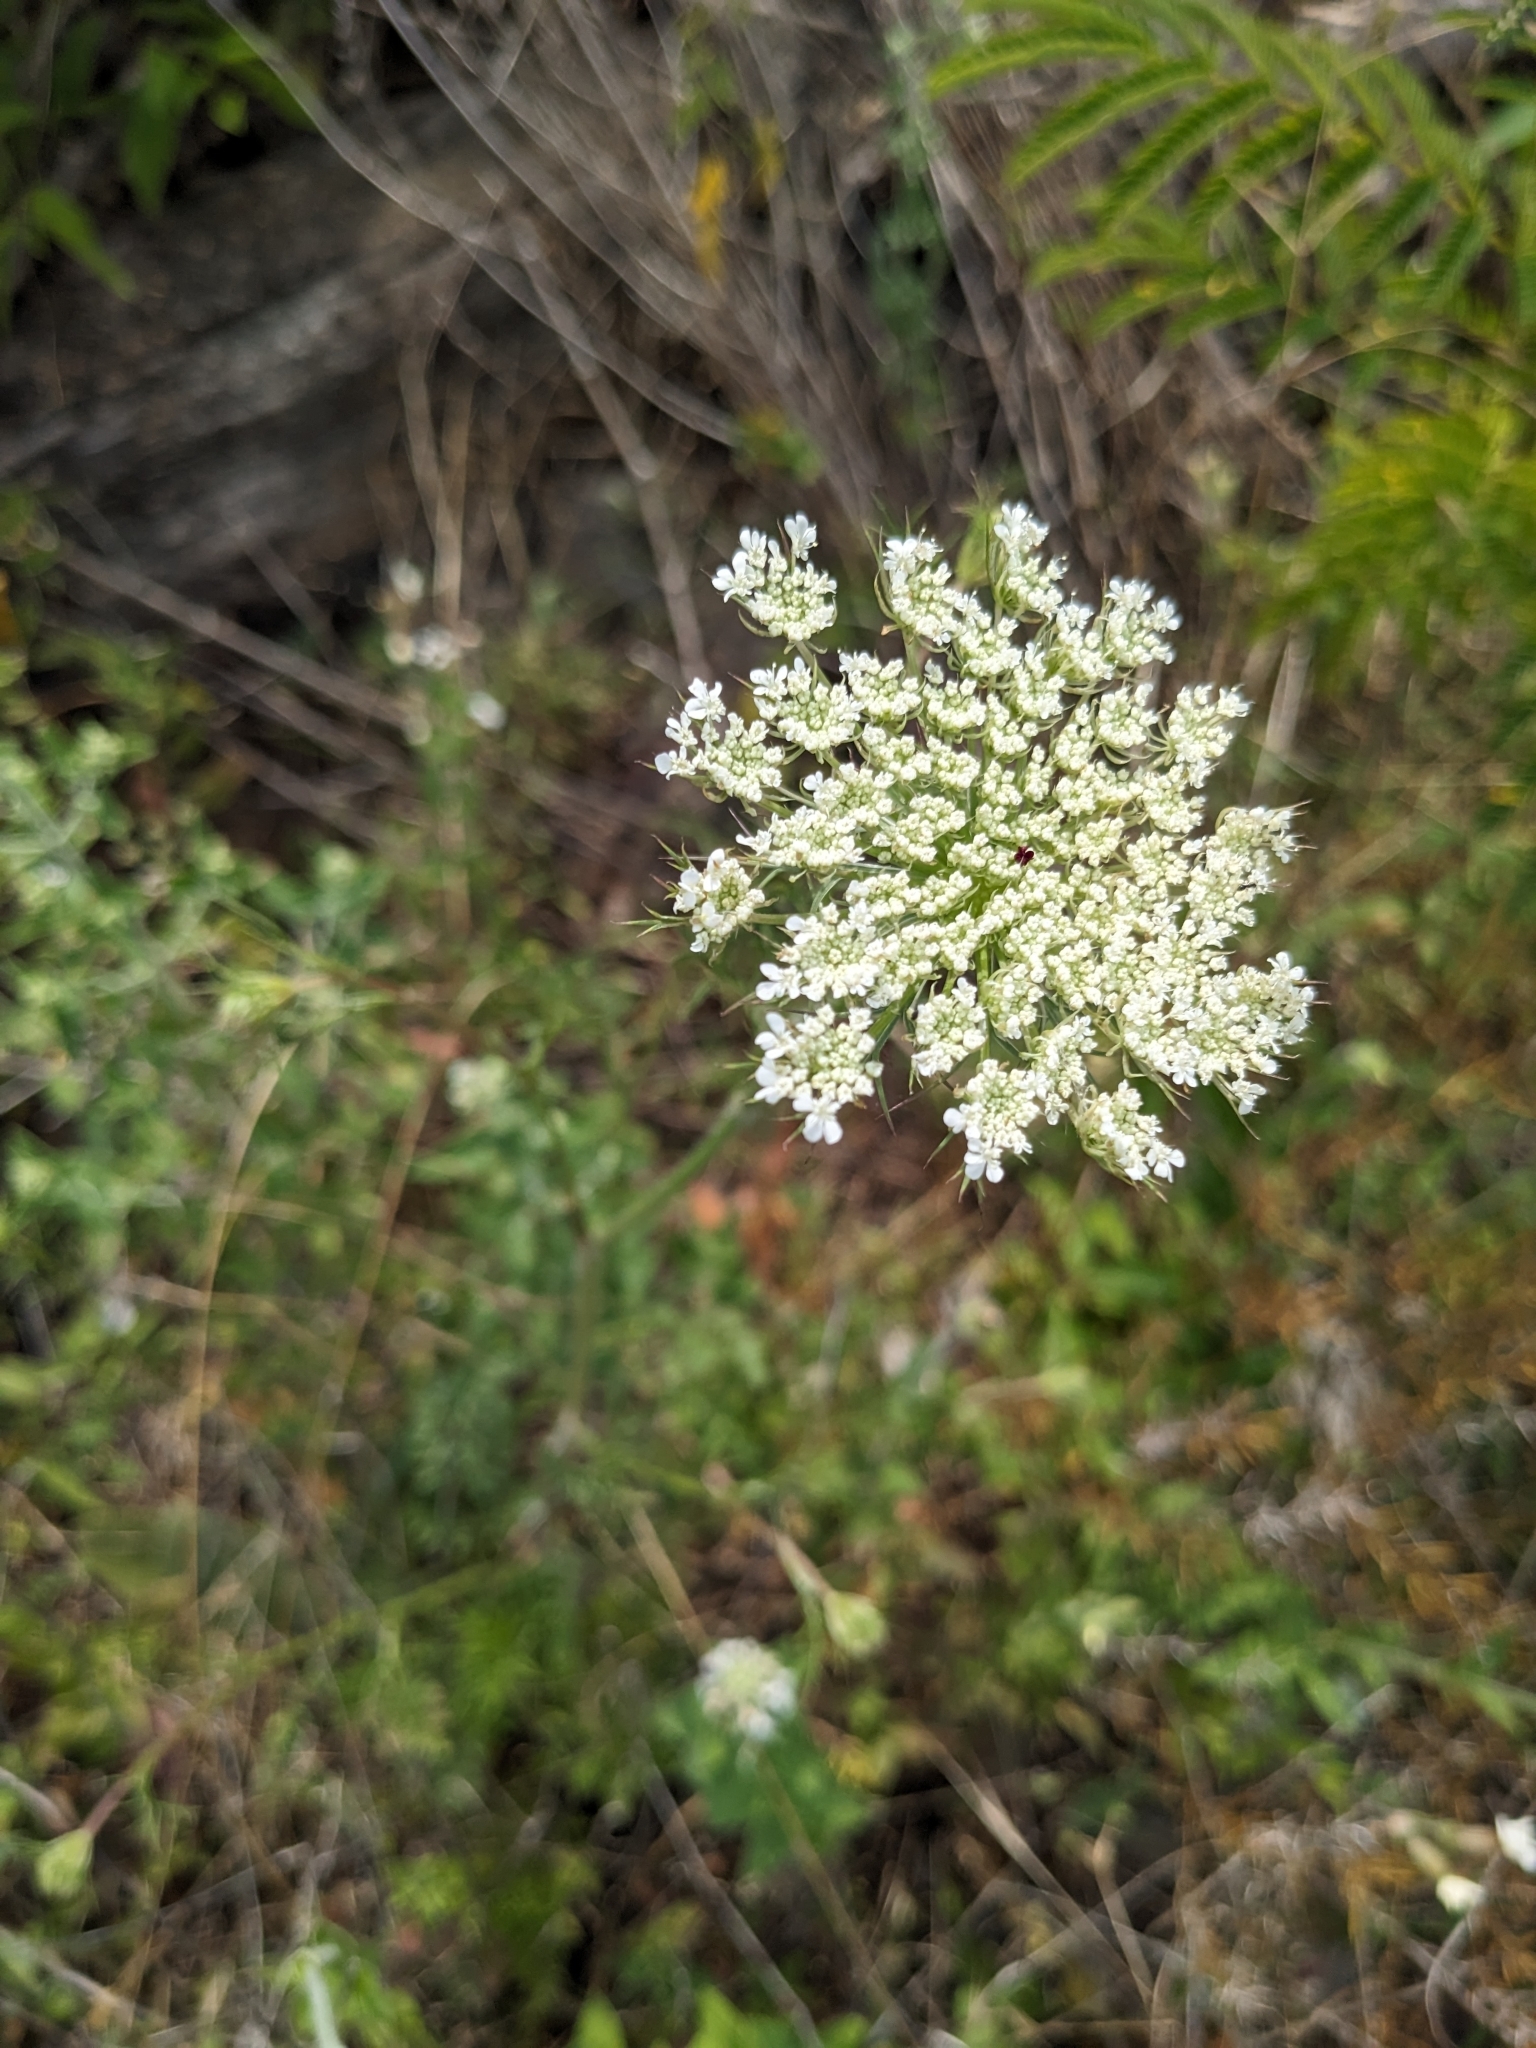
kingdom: Plantae
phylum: Tracheophyta
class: Magnoliopsida
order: Apiales
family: Apiaceae
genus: Daucus
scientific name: Daucus carota
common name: Wild carrot
